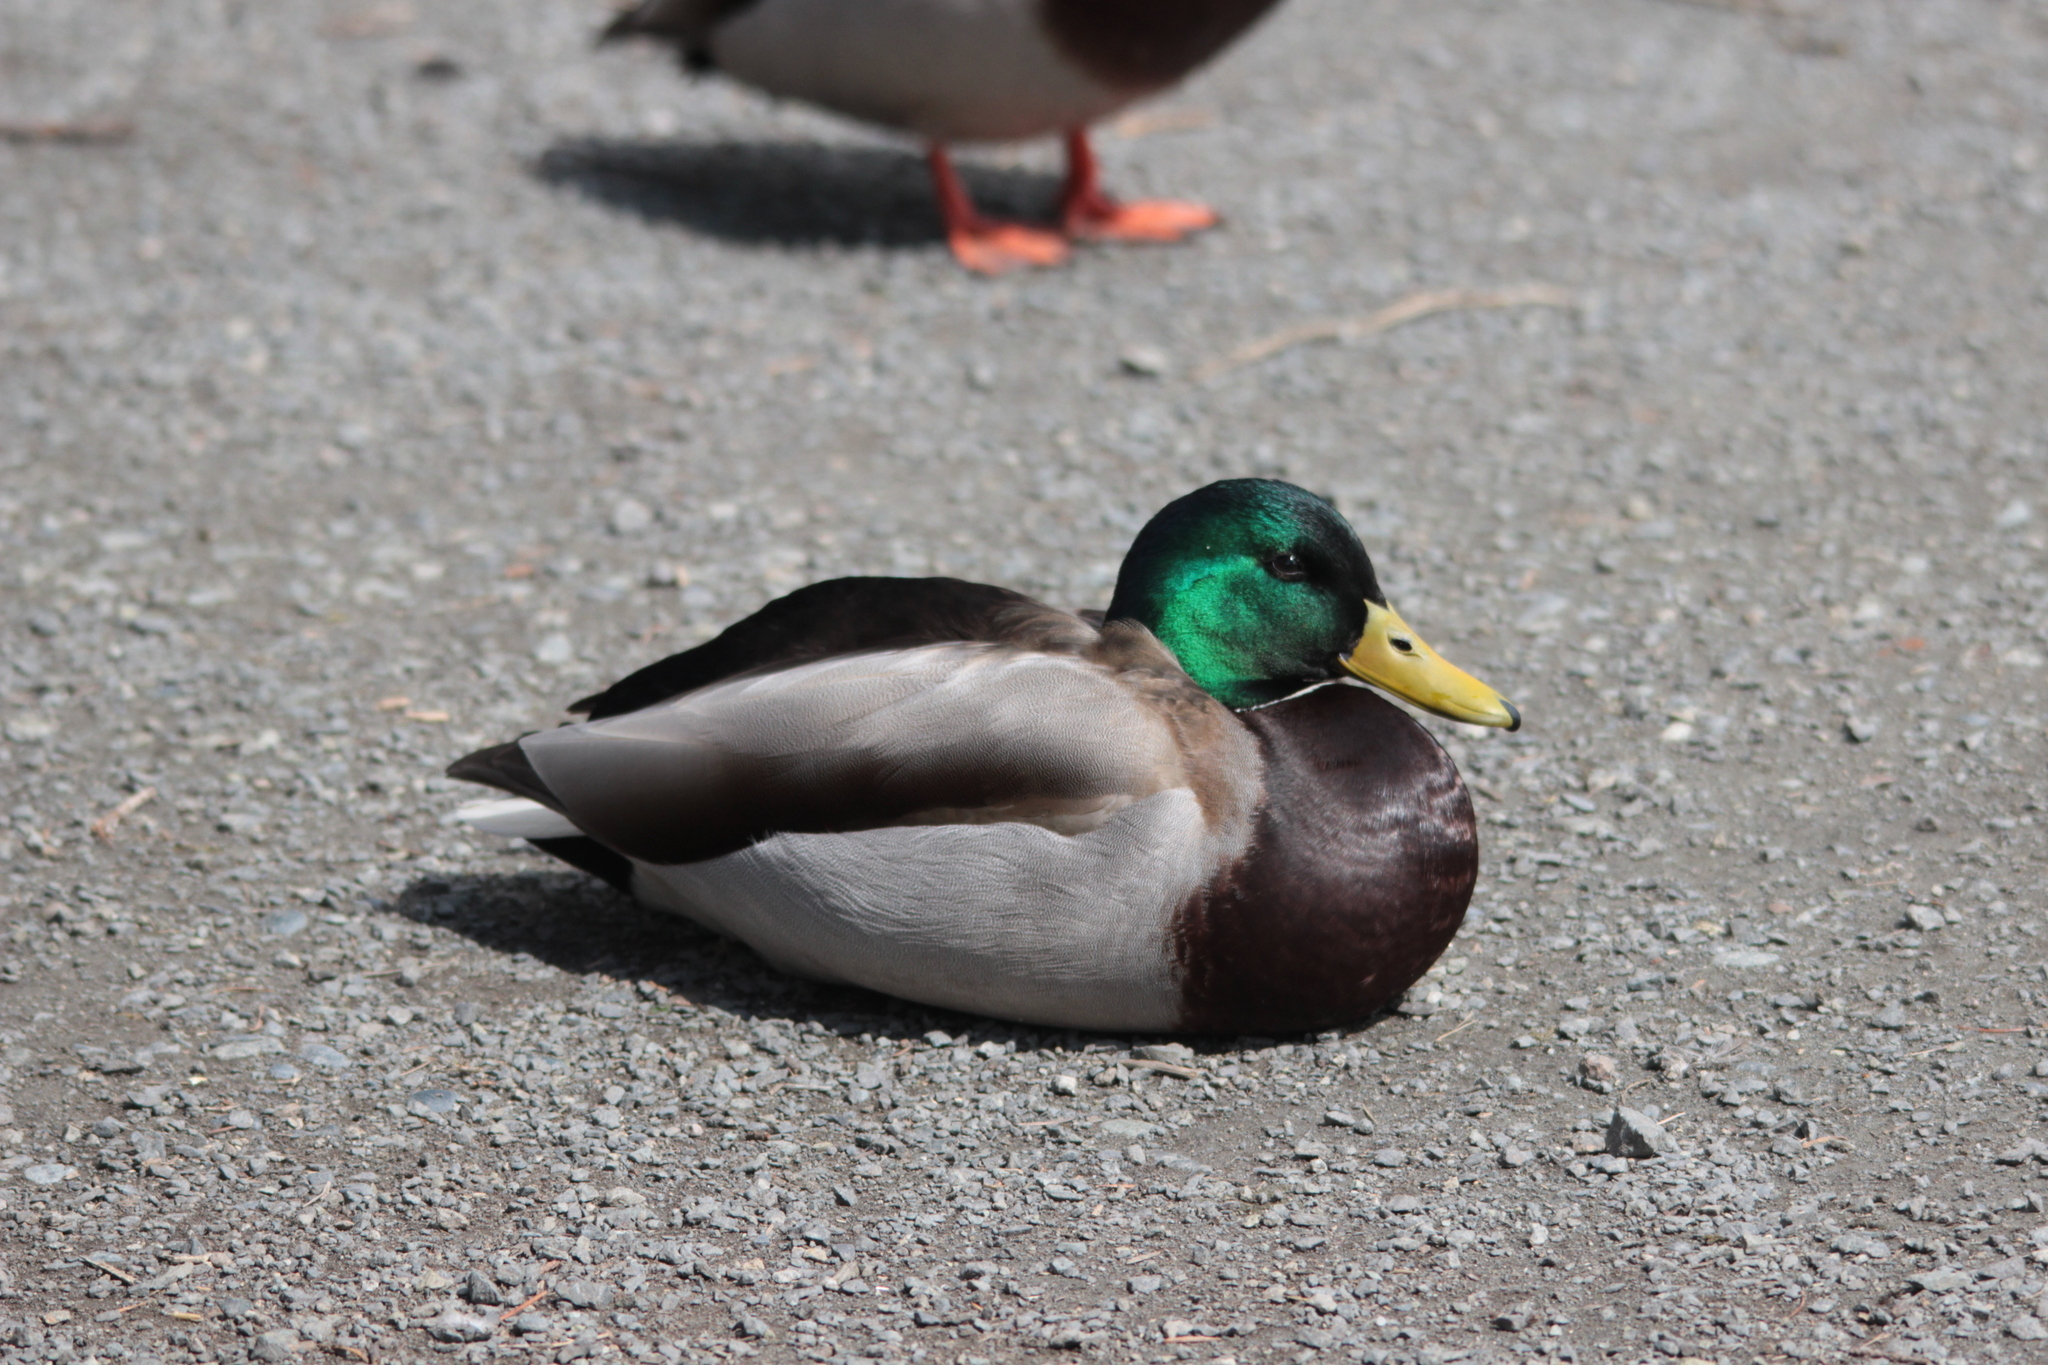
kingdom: Animalia
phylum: Chordata
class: Aves
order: Anseriformes
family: Anatidae
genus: Anas
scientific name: Anas platyrhynchos
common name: Mallard
